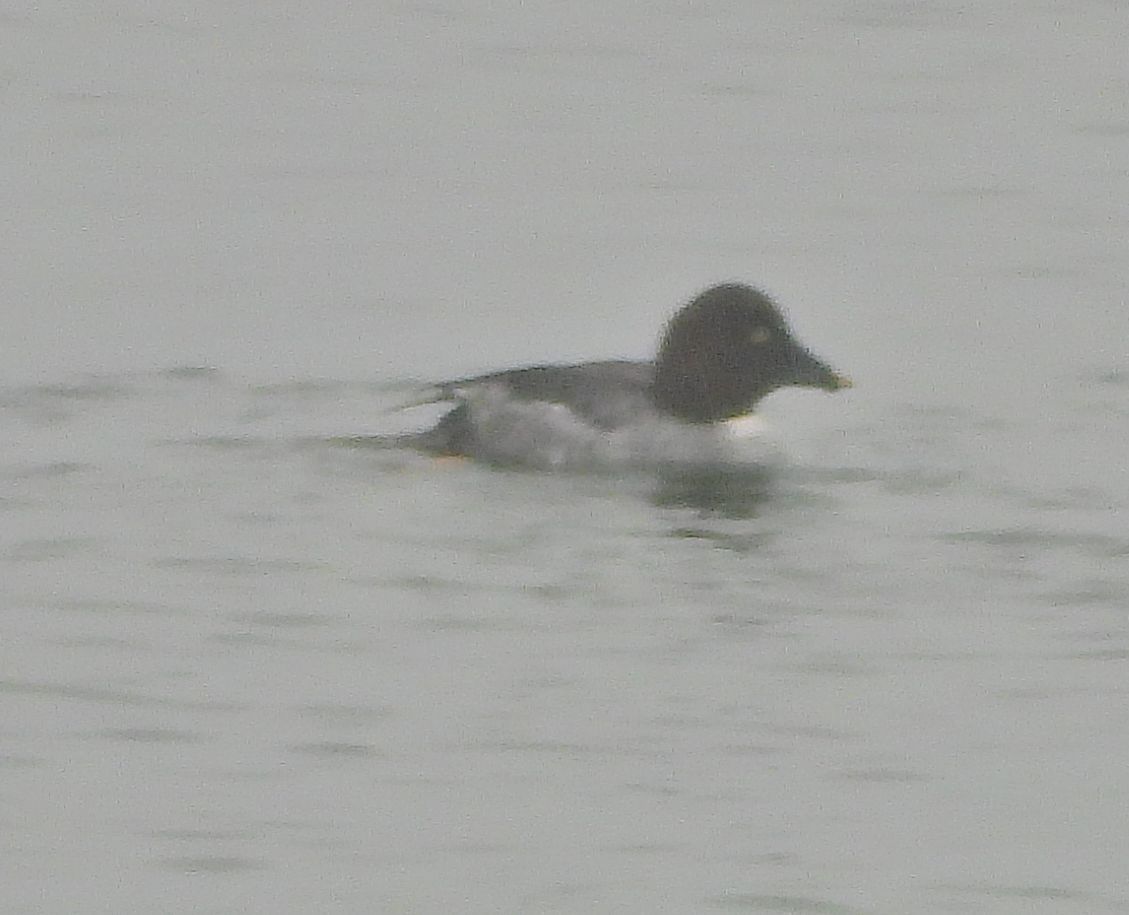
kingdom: Animalia
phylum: Chordata
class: Aves
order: Anseriformes
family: Anatidae
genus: Bucephala
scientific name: Bucephala clangula
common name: Common goldeneye
